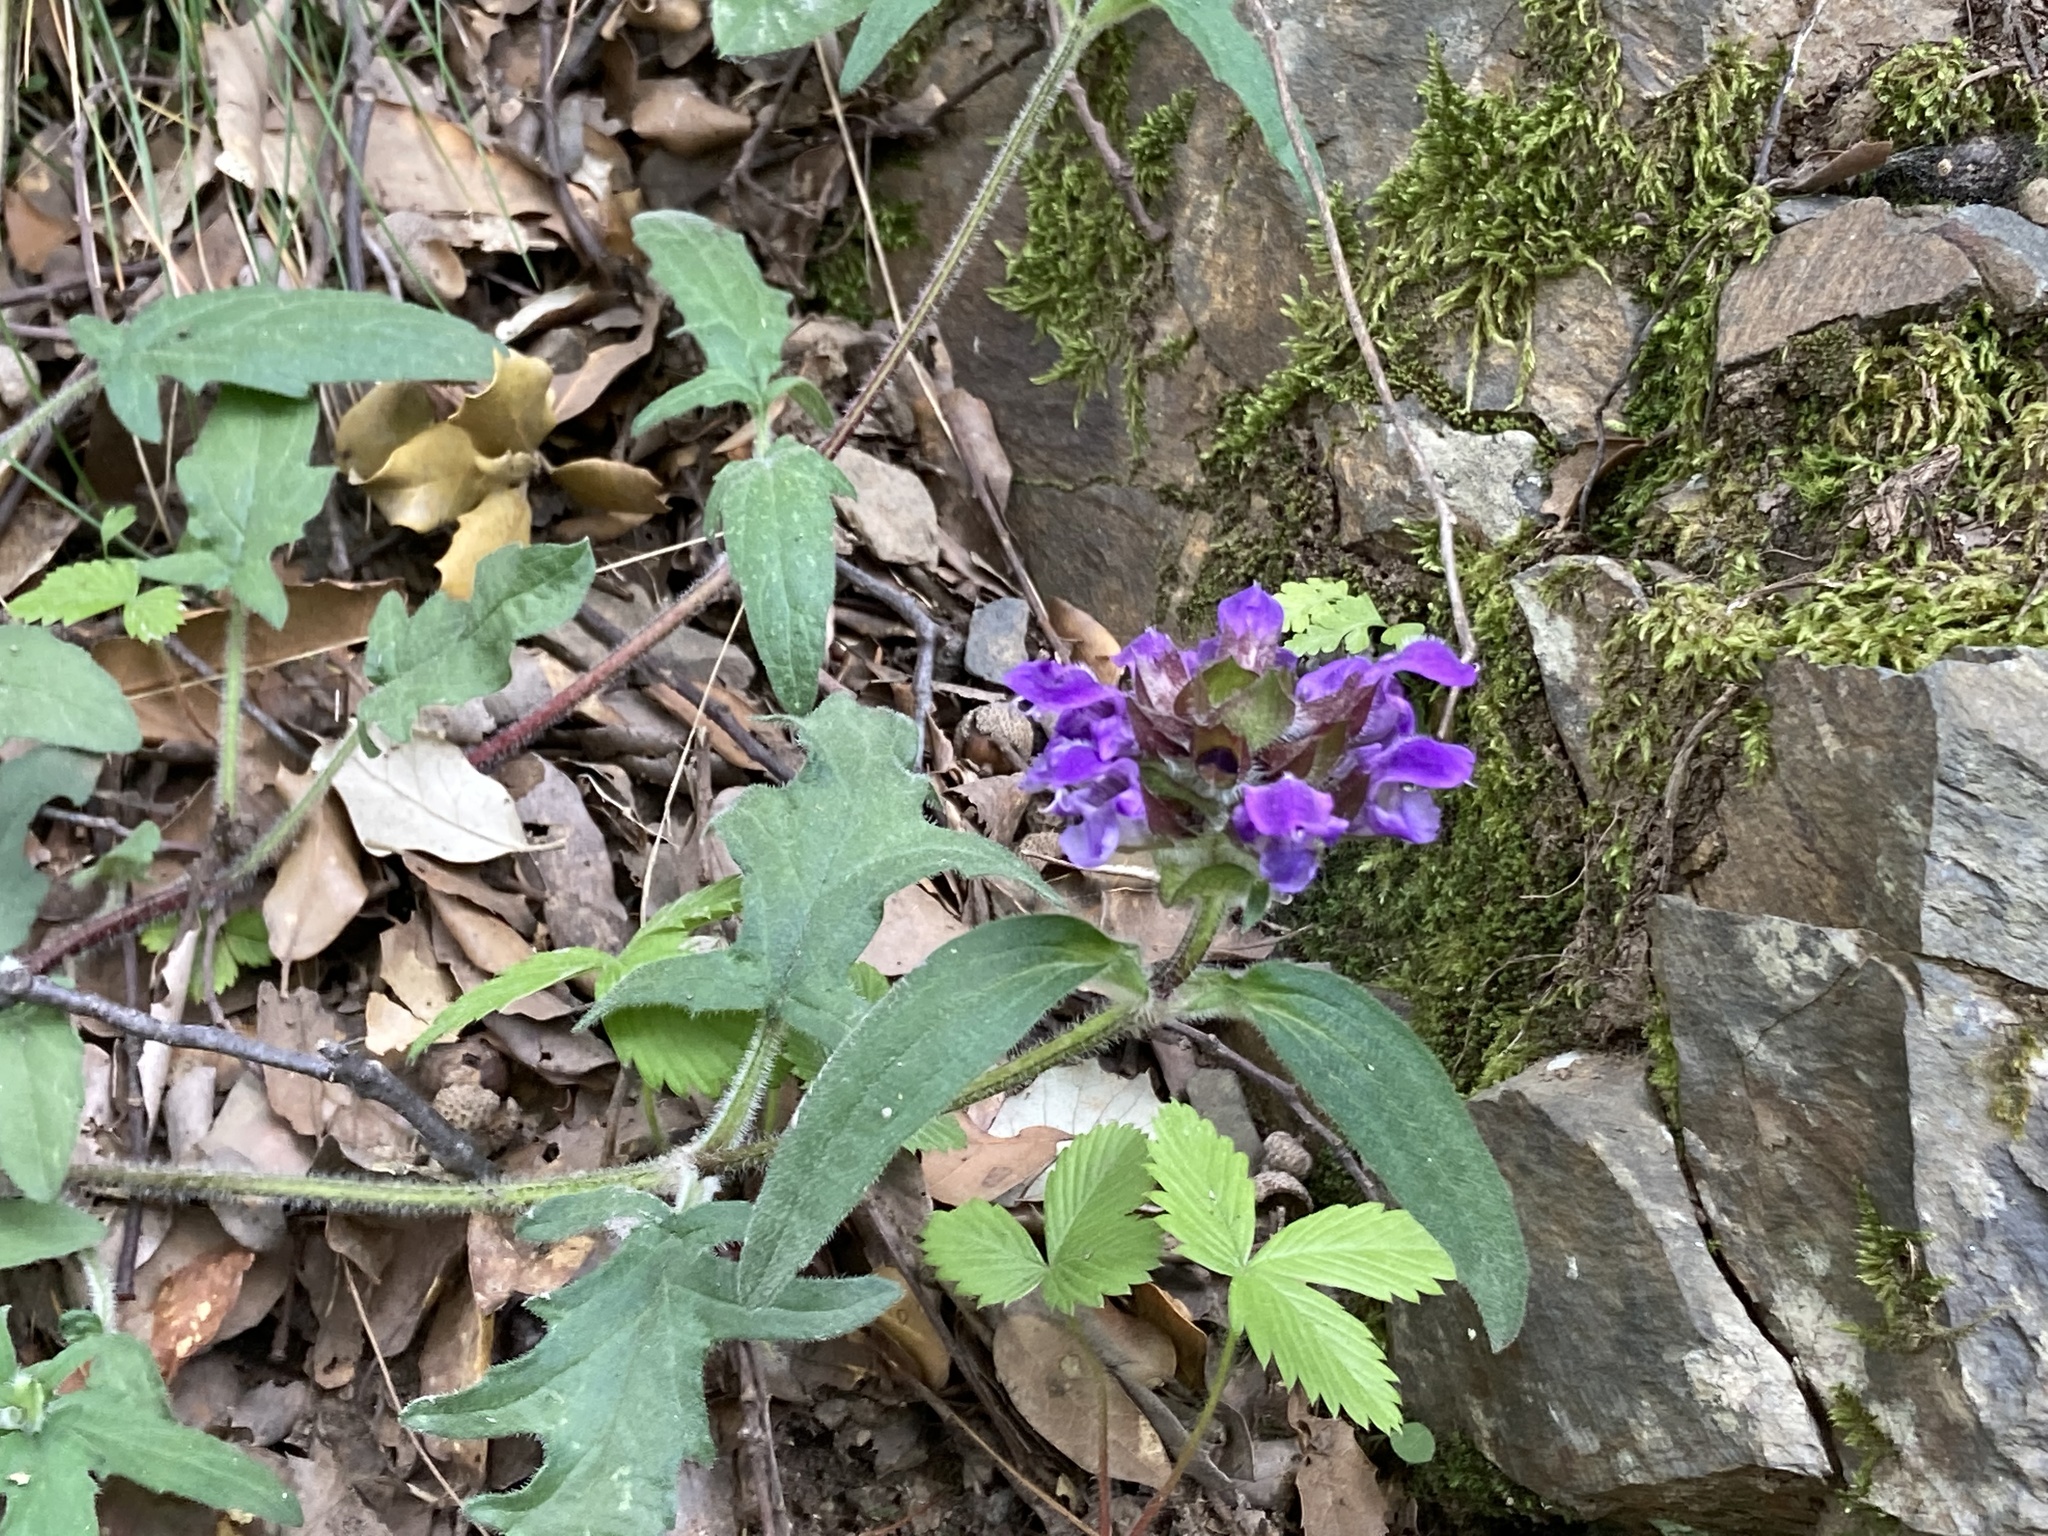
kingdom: Plantae
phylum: Tracheophyta
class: Magnoliopsida
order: Lamiales
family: Lamiaceae
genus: Prunella
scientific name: Prunella grandiflora
